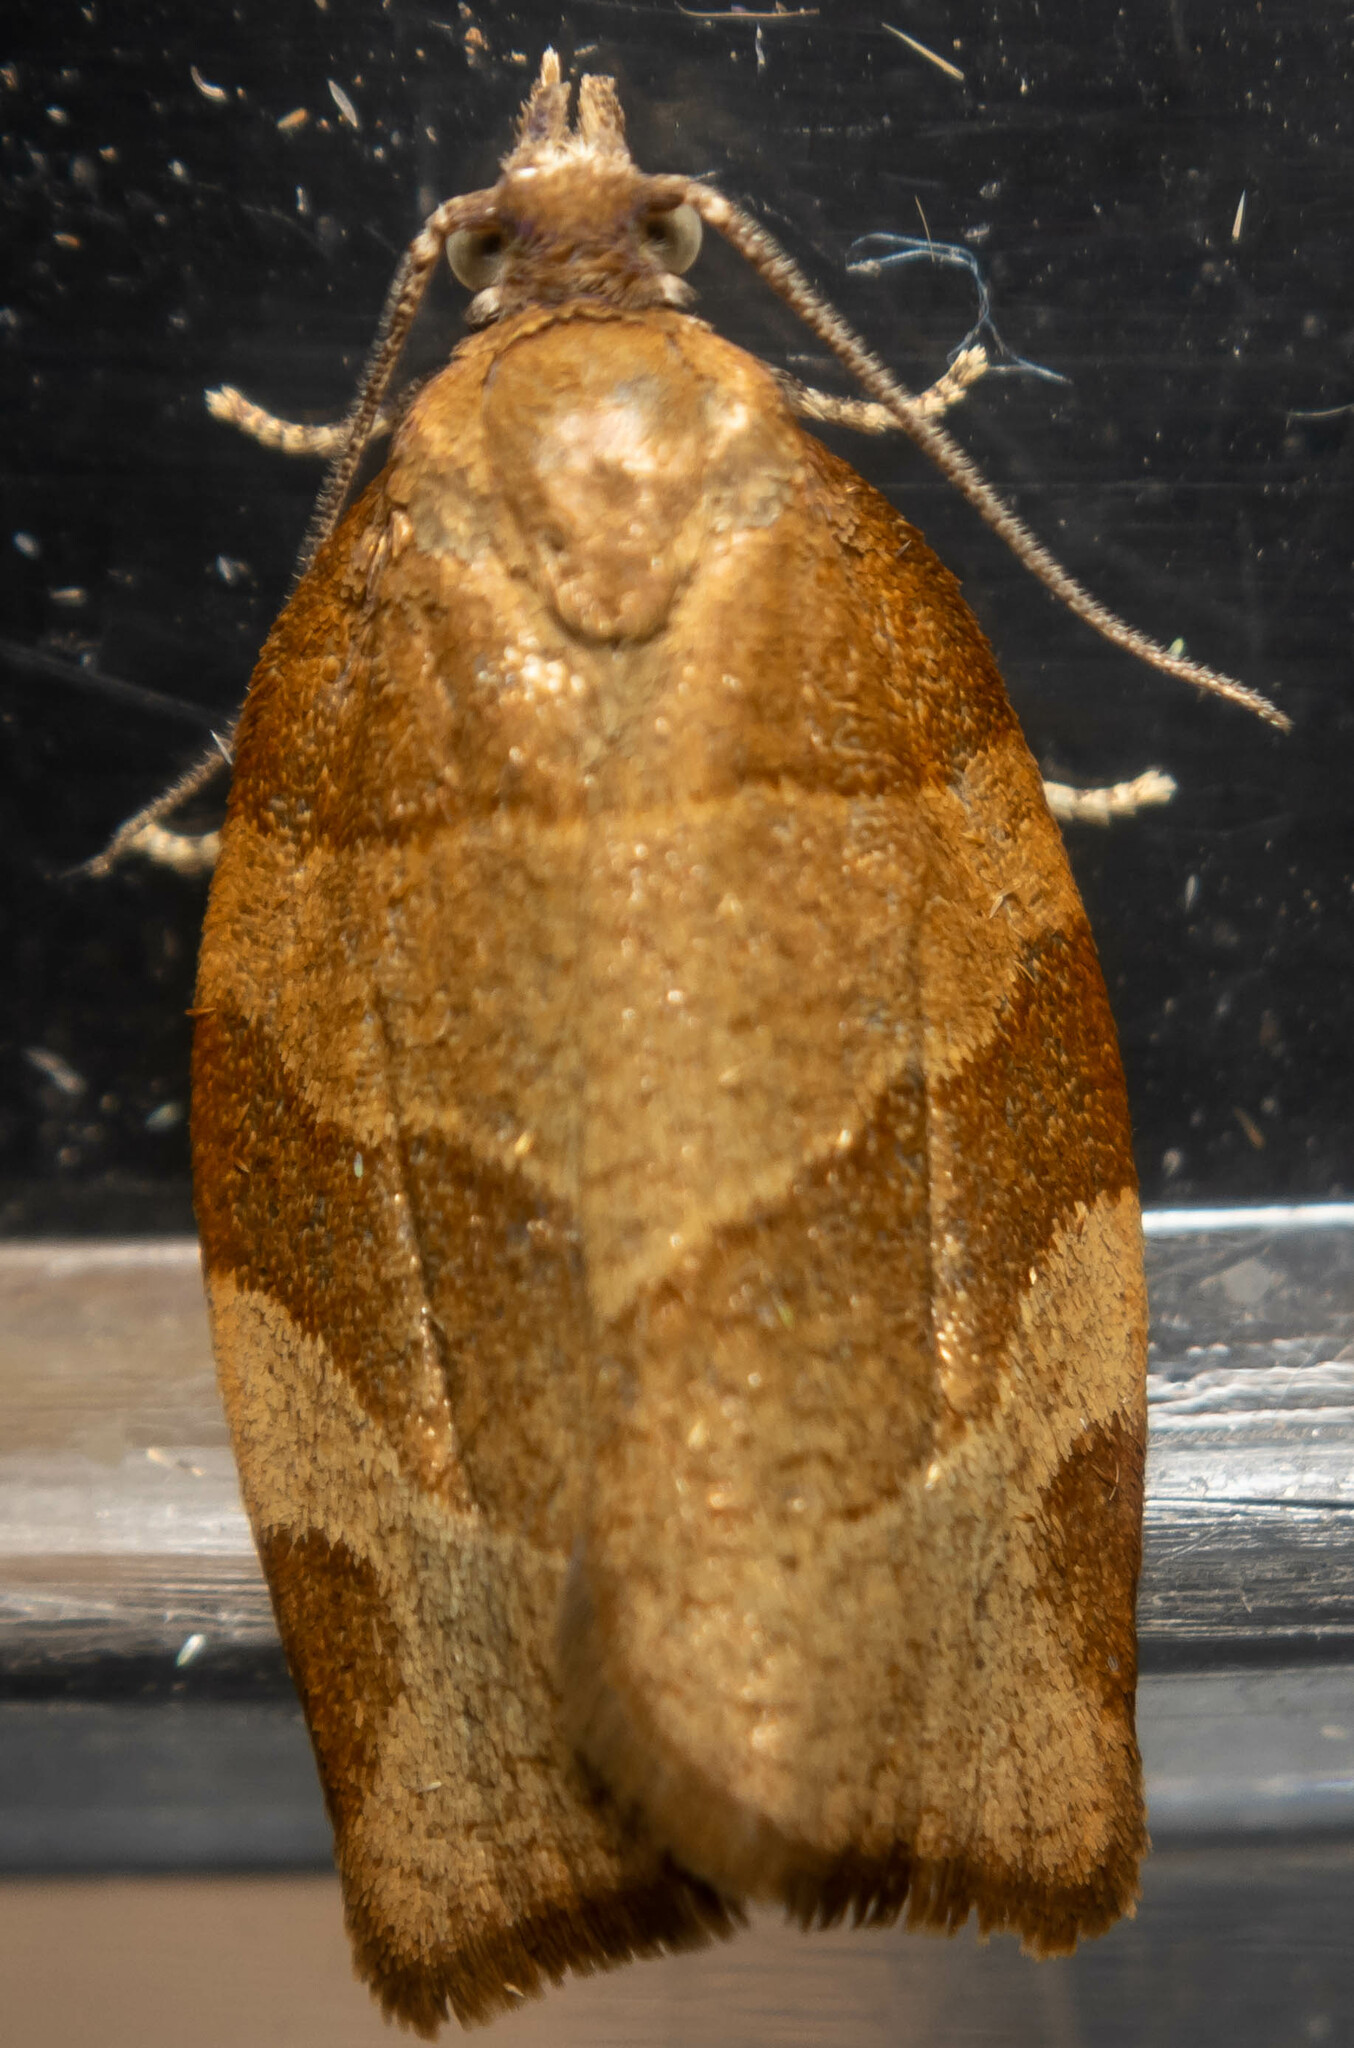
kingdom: Animalia
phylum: Arthropoda
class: Insecta
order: Lepidoptera
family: Tortricidae
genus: Pandemis
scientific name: Pandemis cerasana
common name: Barred fruit-tree tortrix
